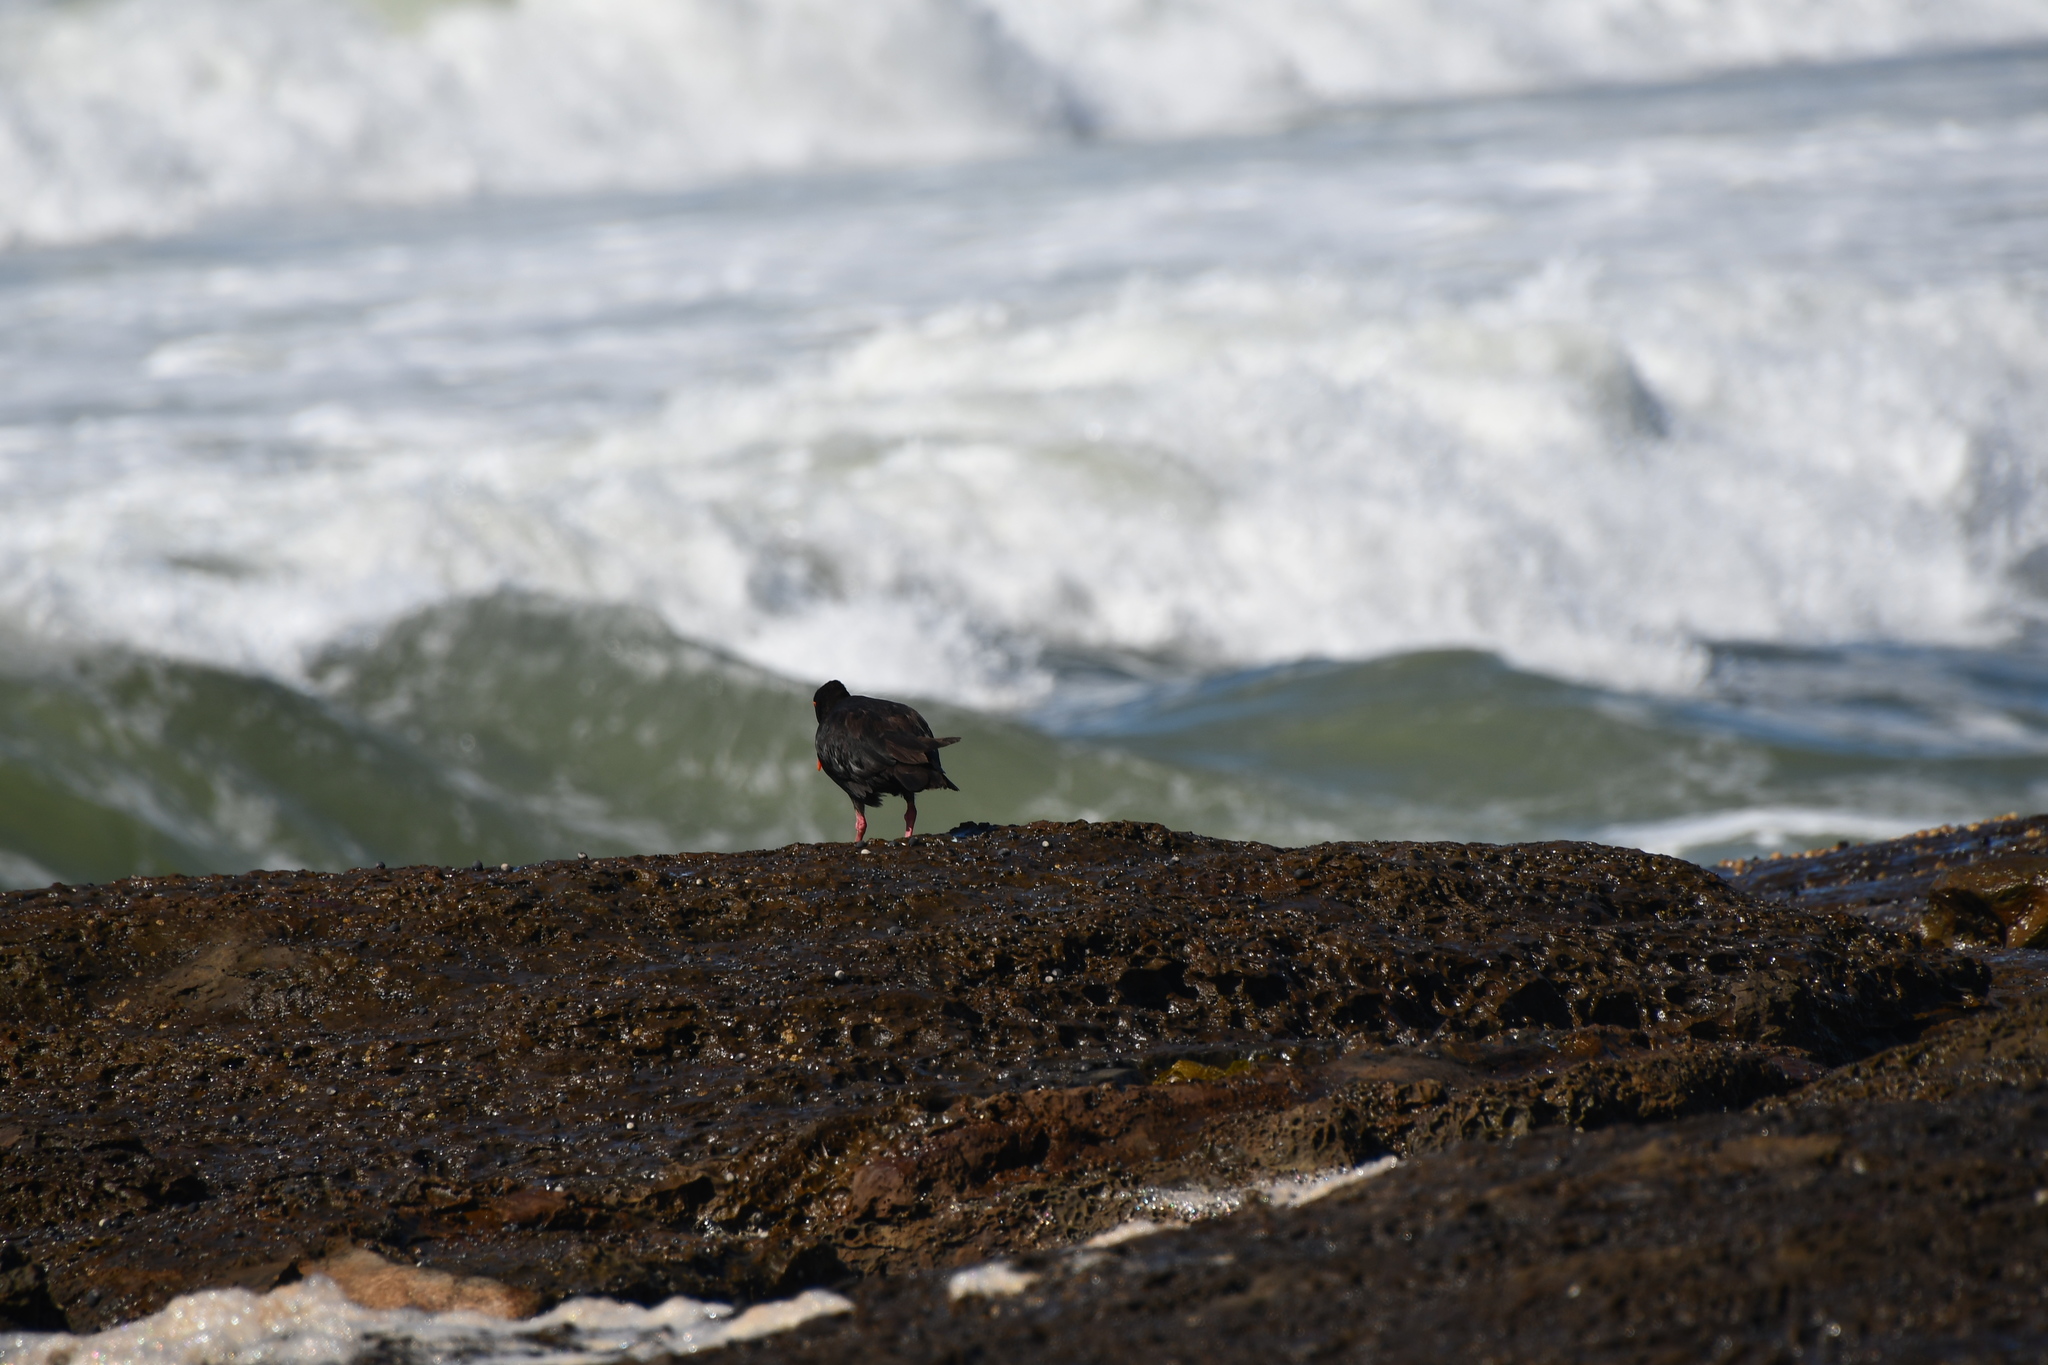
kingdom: Animalia
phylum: Chordata
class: Aves
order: Charadriiformes
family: Haematopodidae
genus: Haematopus
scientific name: Haematopus fuliginosus
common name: Sooty oystercatcher
